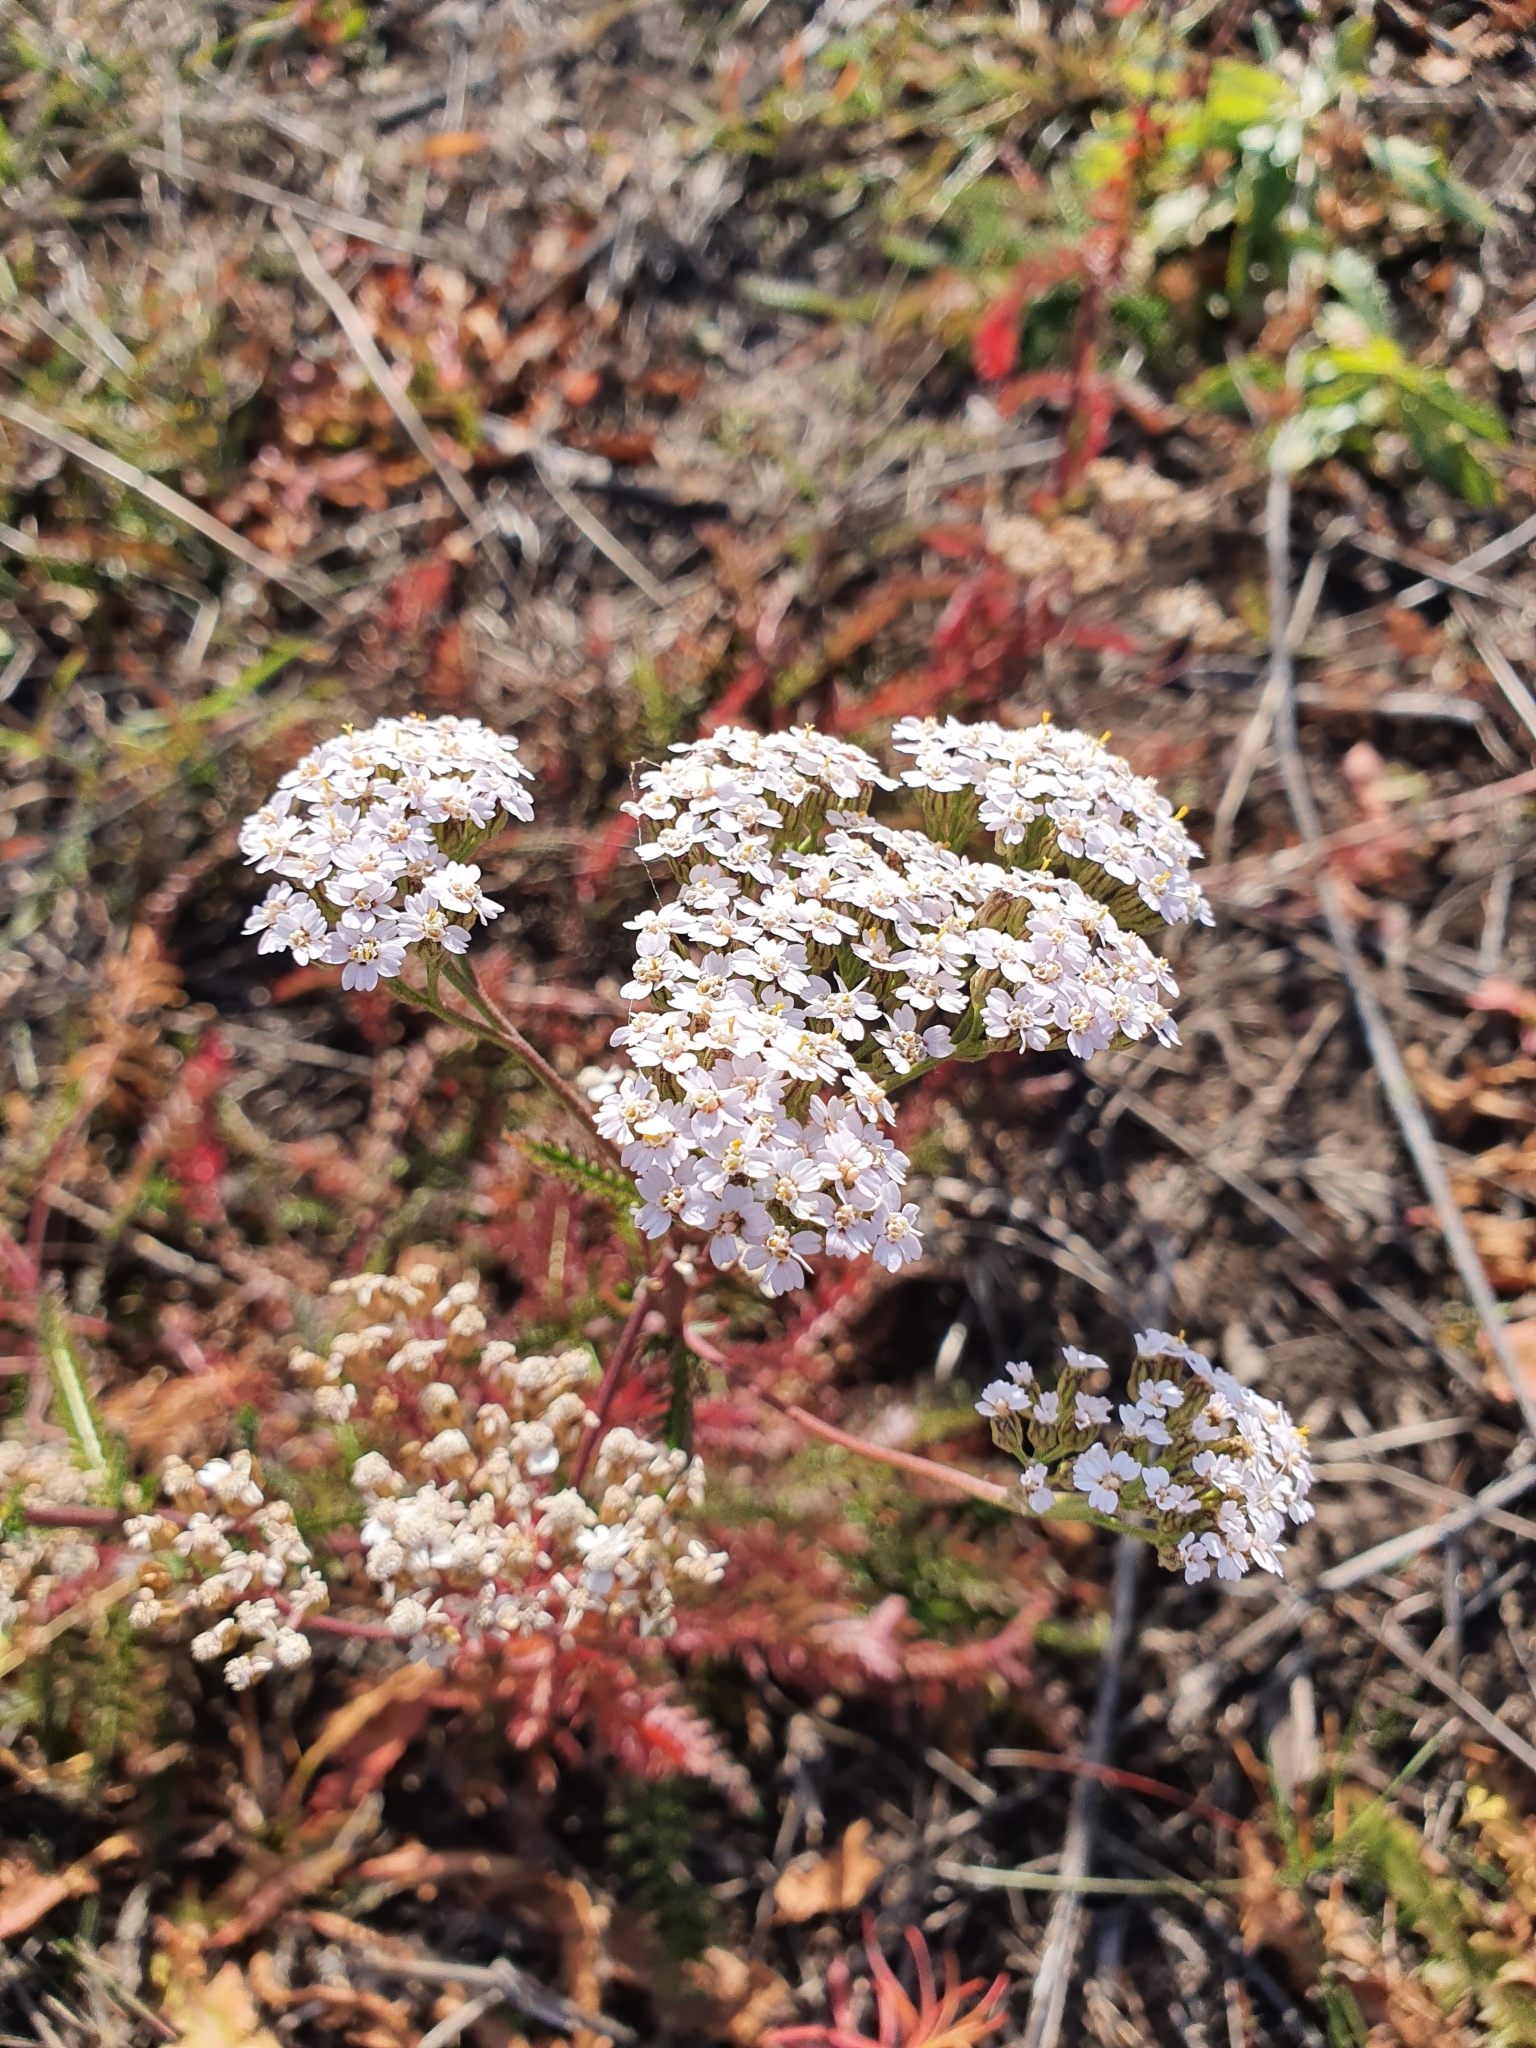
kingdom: Plantae
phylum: Tracheophyta
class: Magnoliopsida
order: Asterales
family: Asteraceae
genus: Achillea
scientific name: Achillea millefolium
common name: Yarrow
